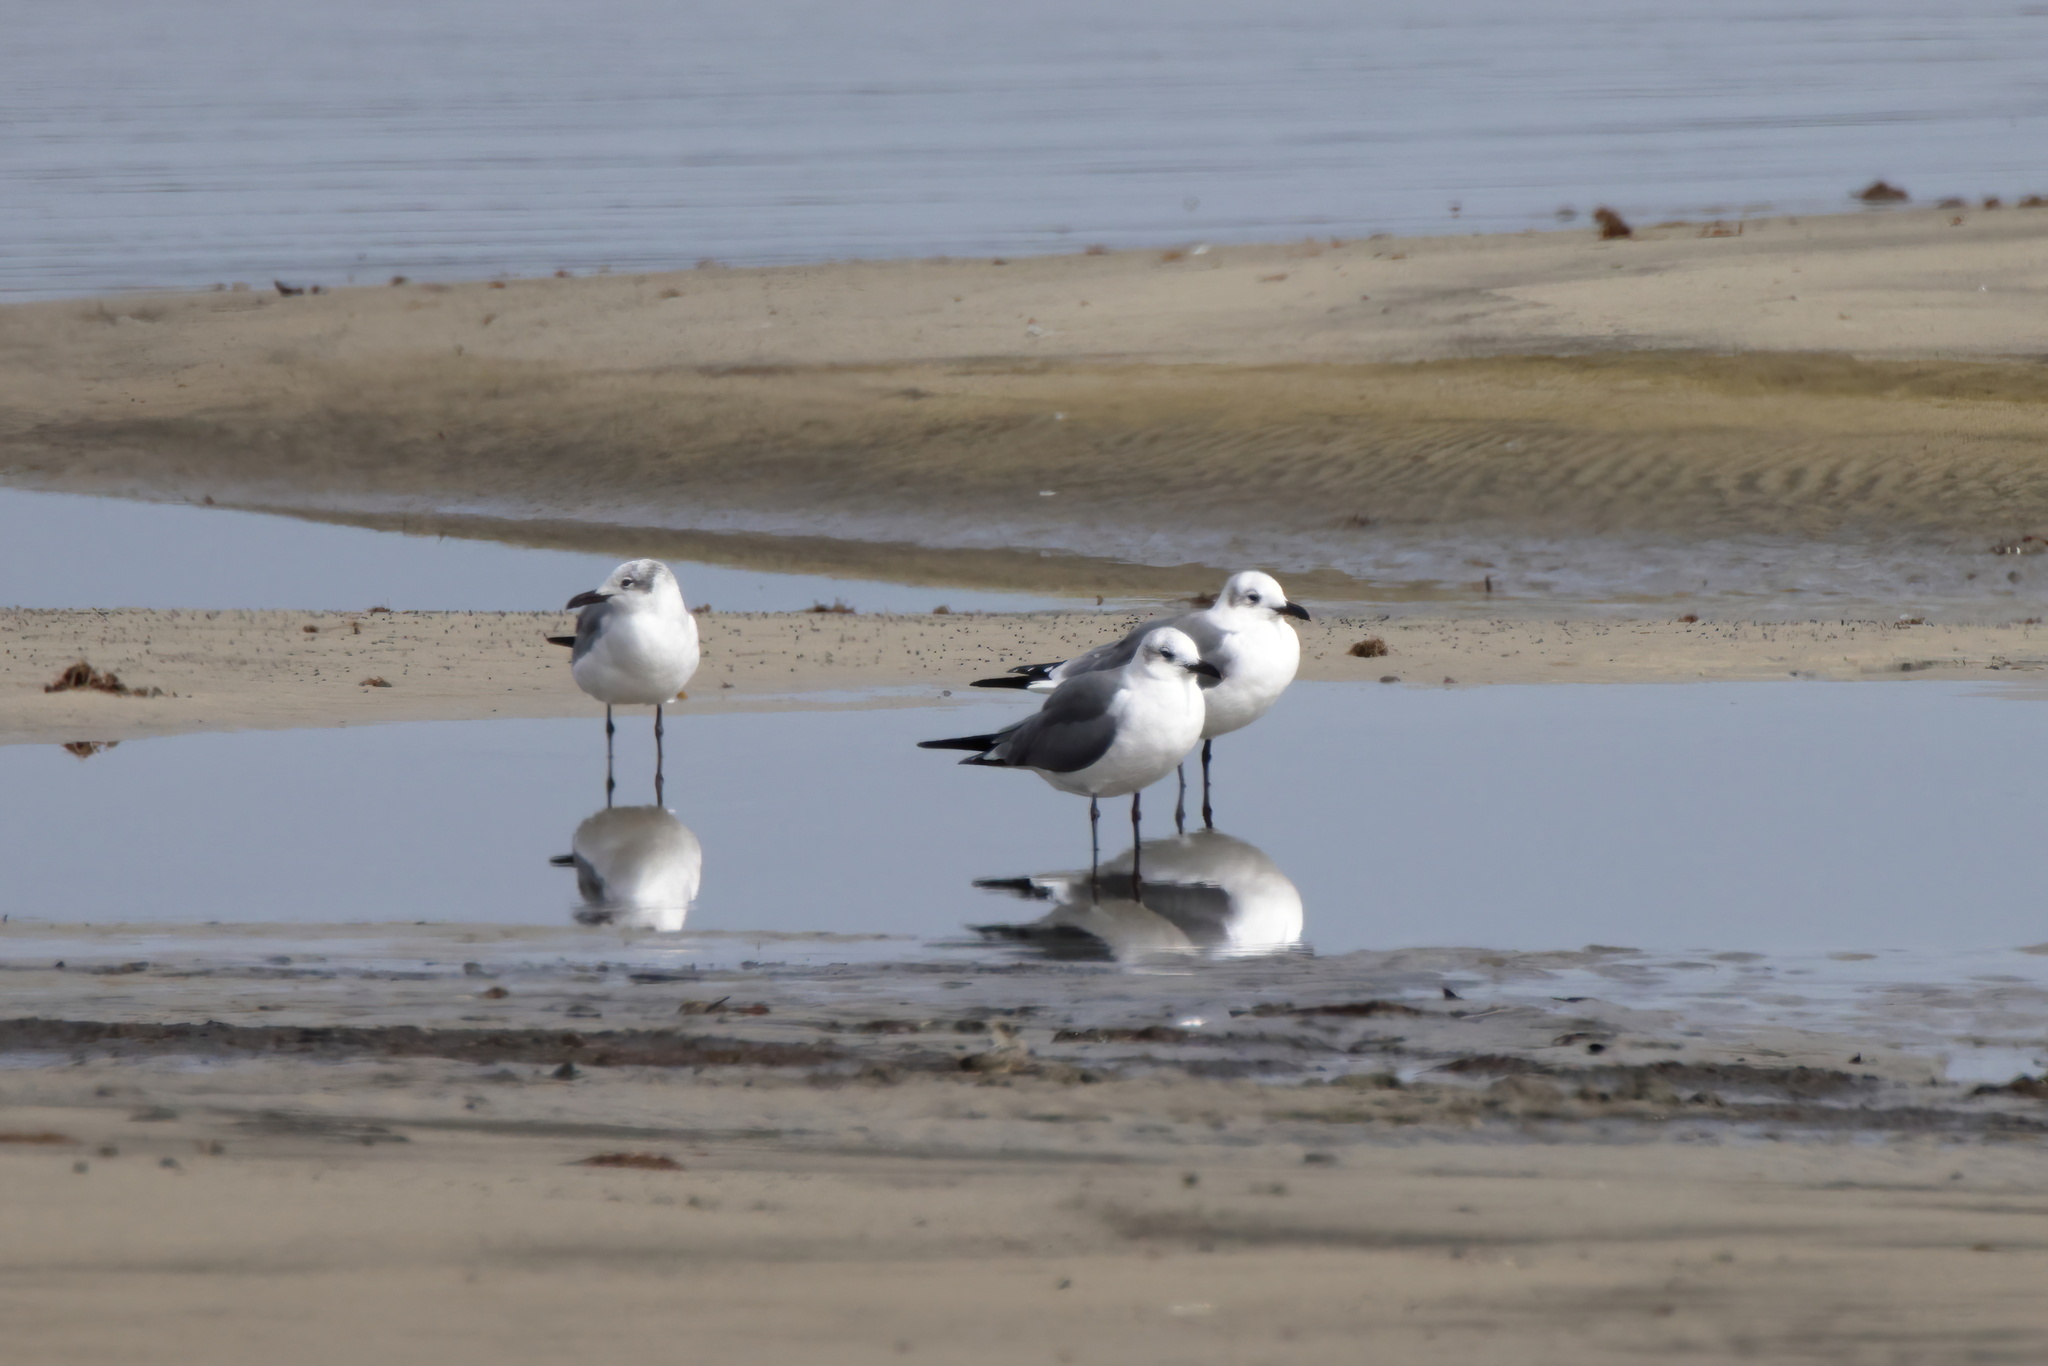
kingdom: Animalia
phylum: Chordata
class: Aves
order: Charadriiformes
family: Laridae
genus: Leucophaeus
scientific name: Leucophaeus atricilla
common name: Laughing gull
